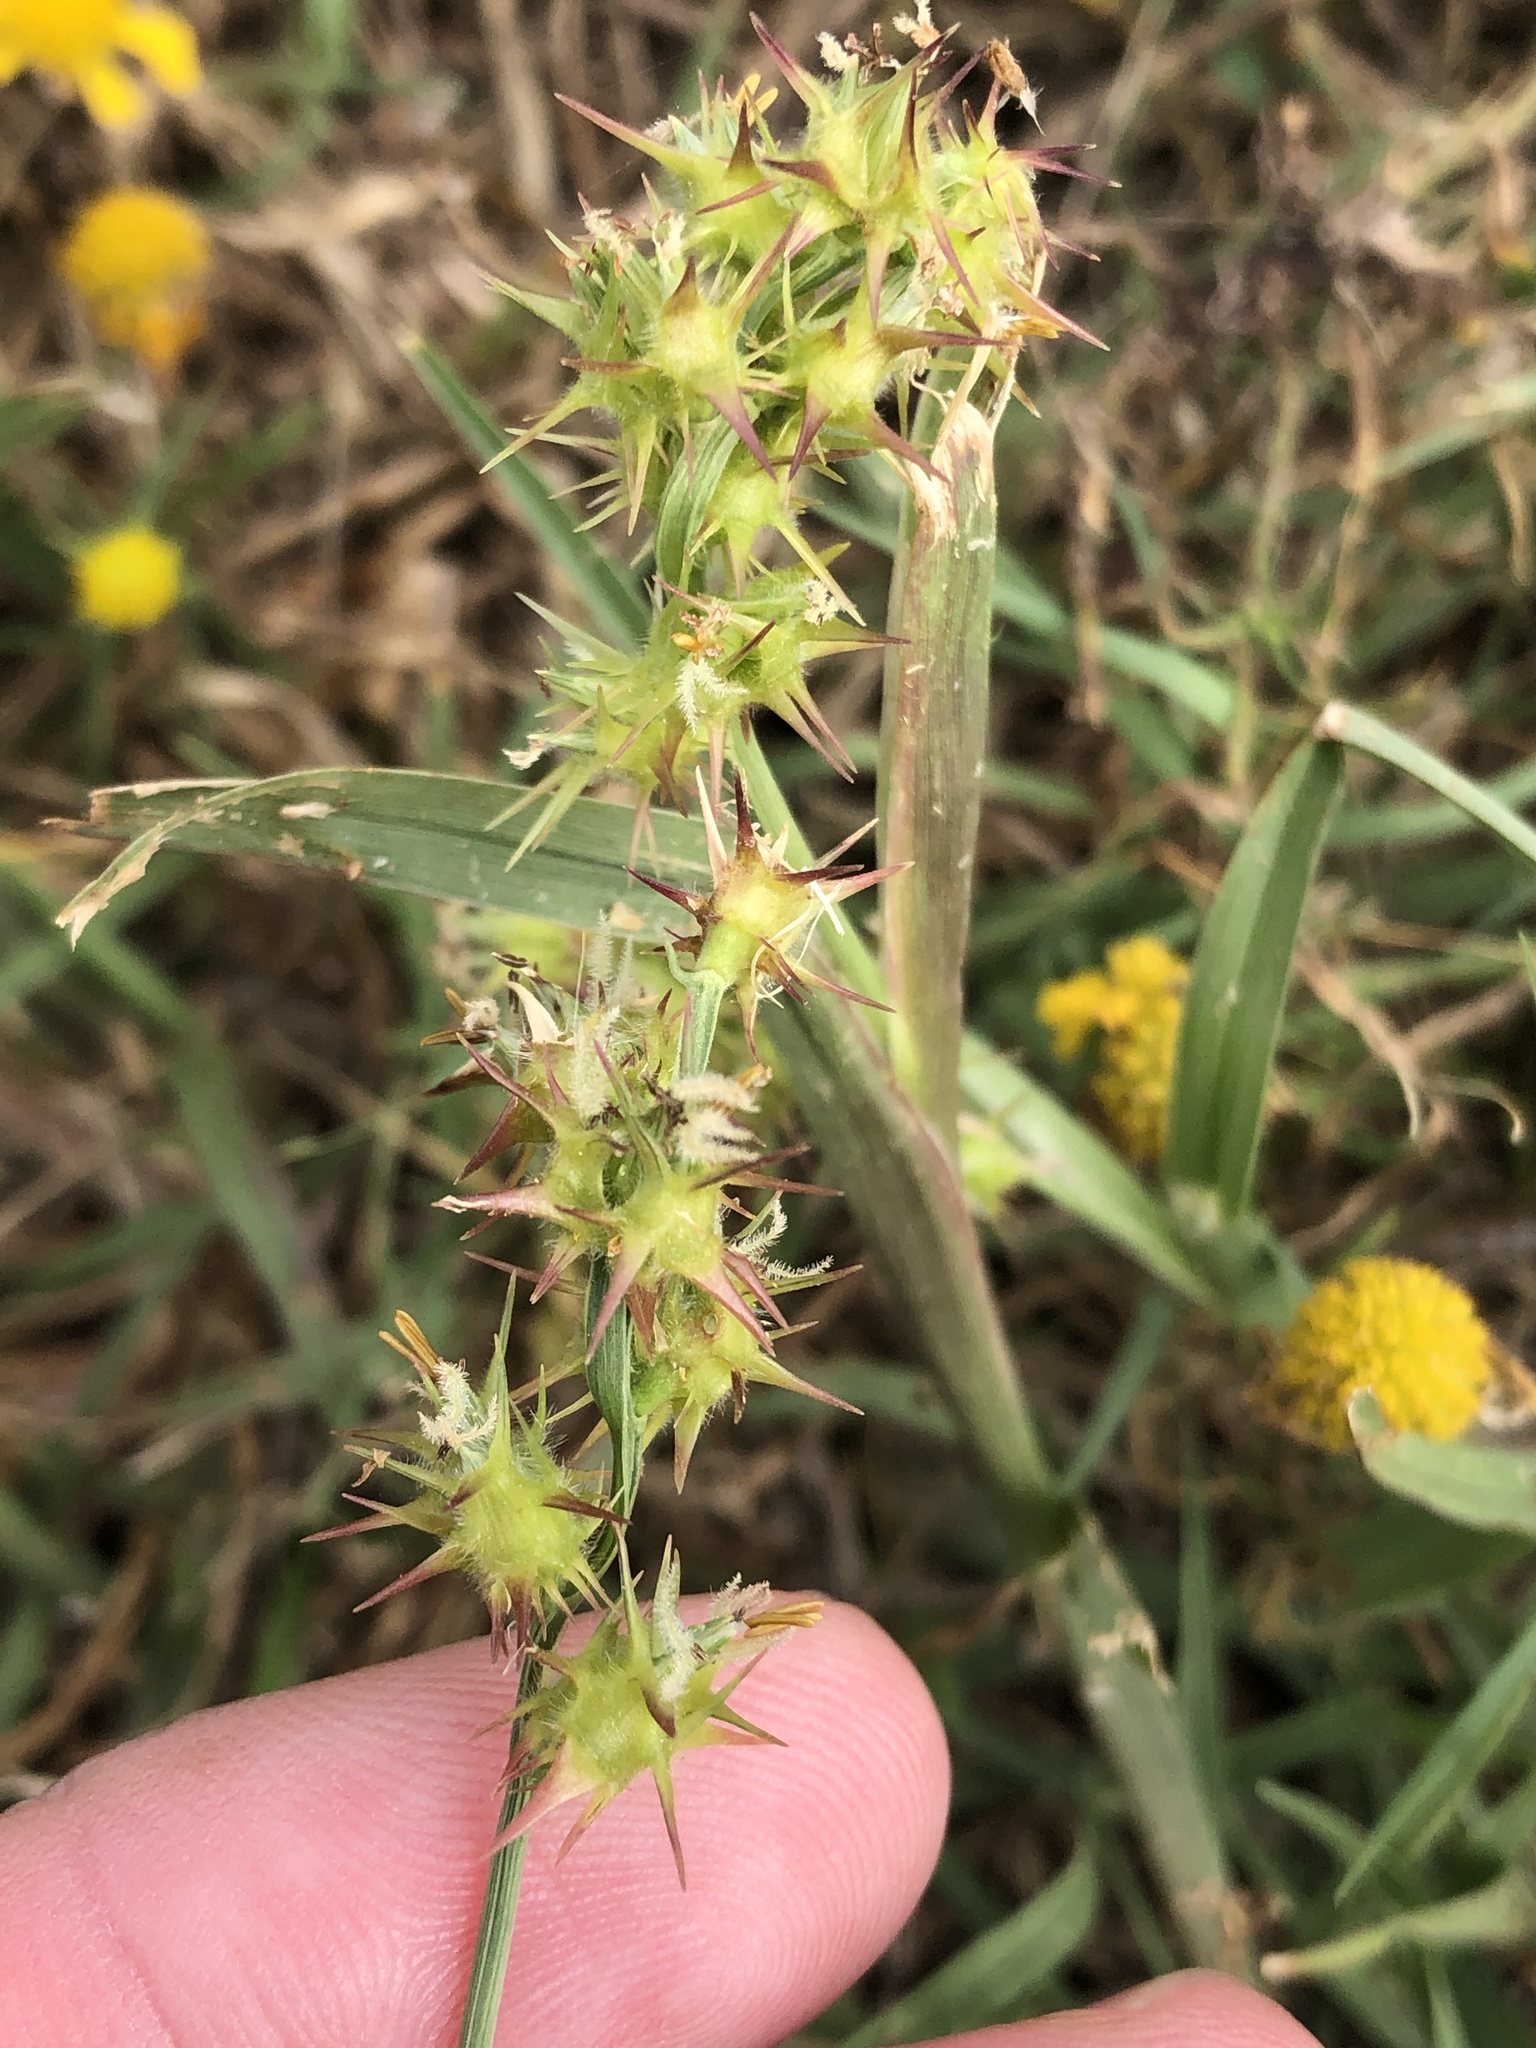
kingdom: Plantae
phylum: Tracheophyta
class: Liliopsida
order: Poales
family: Poaceae
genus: Cenchrus
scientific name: Cenchrus spinifex
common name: Coast sandbur
